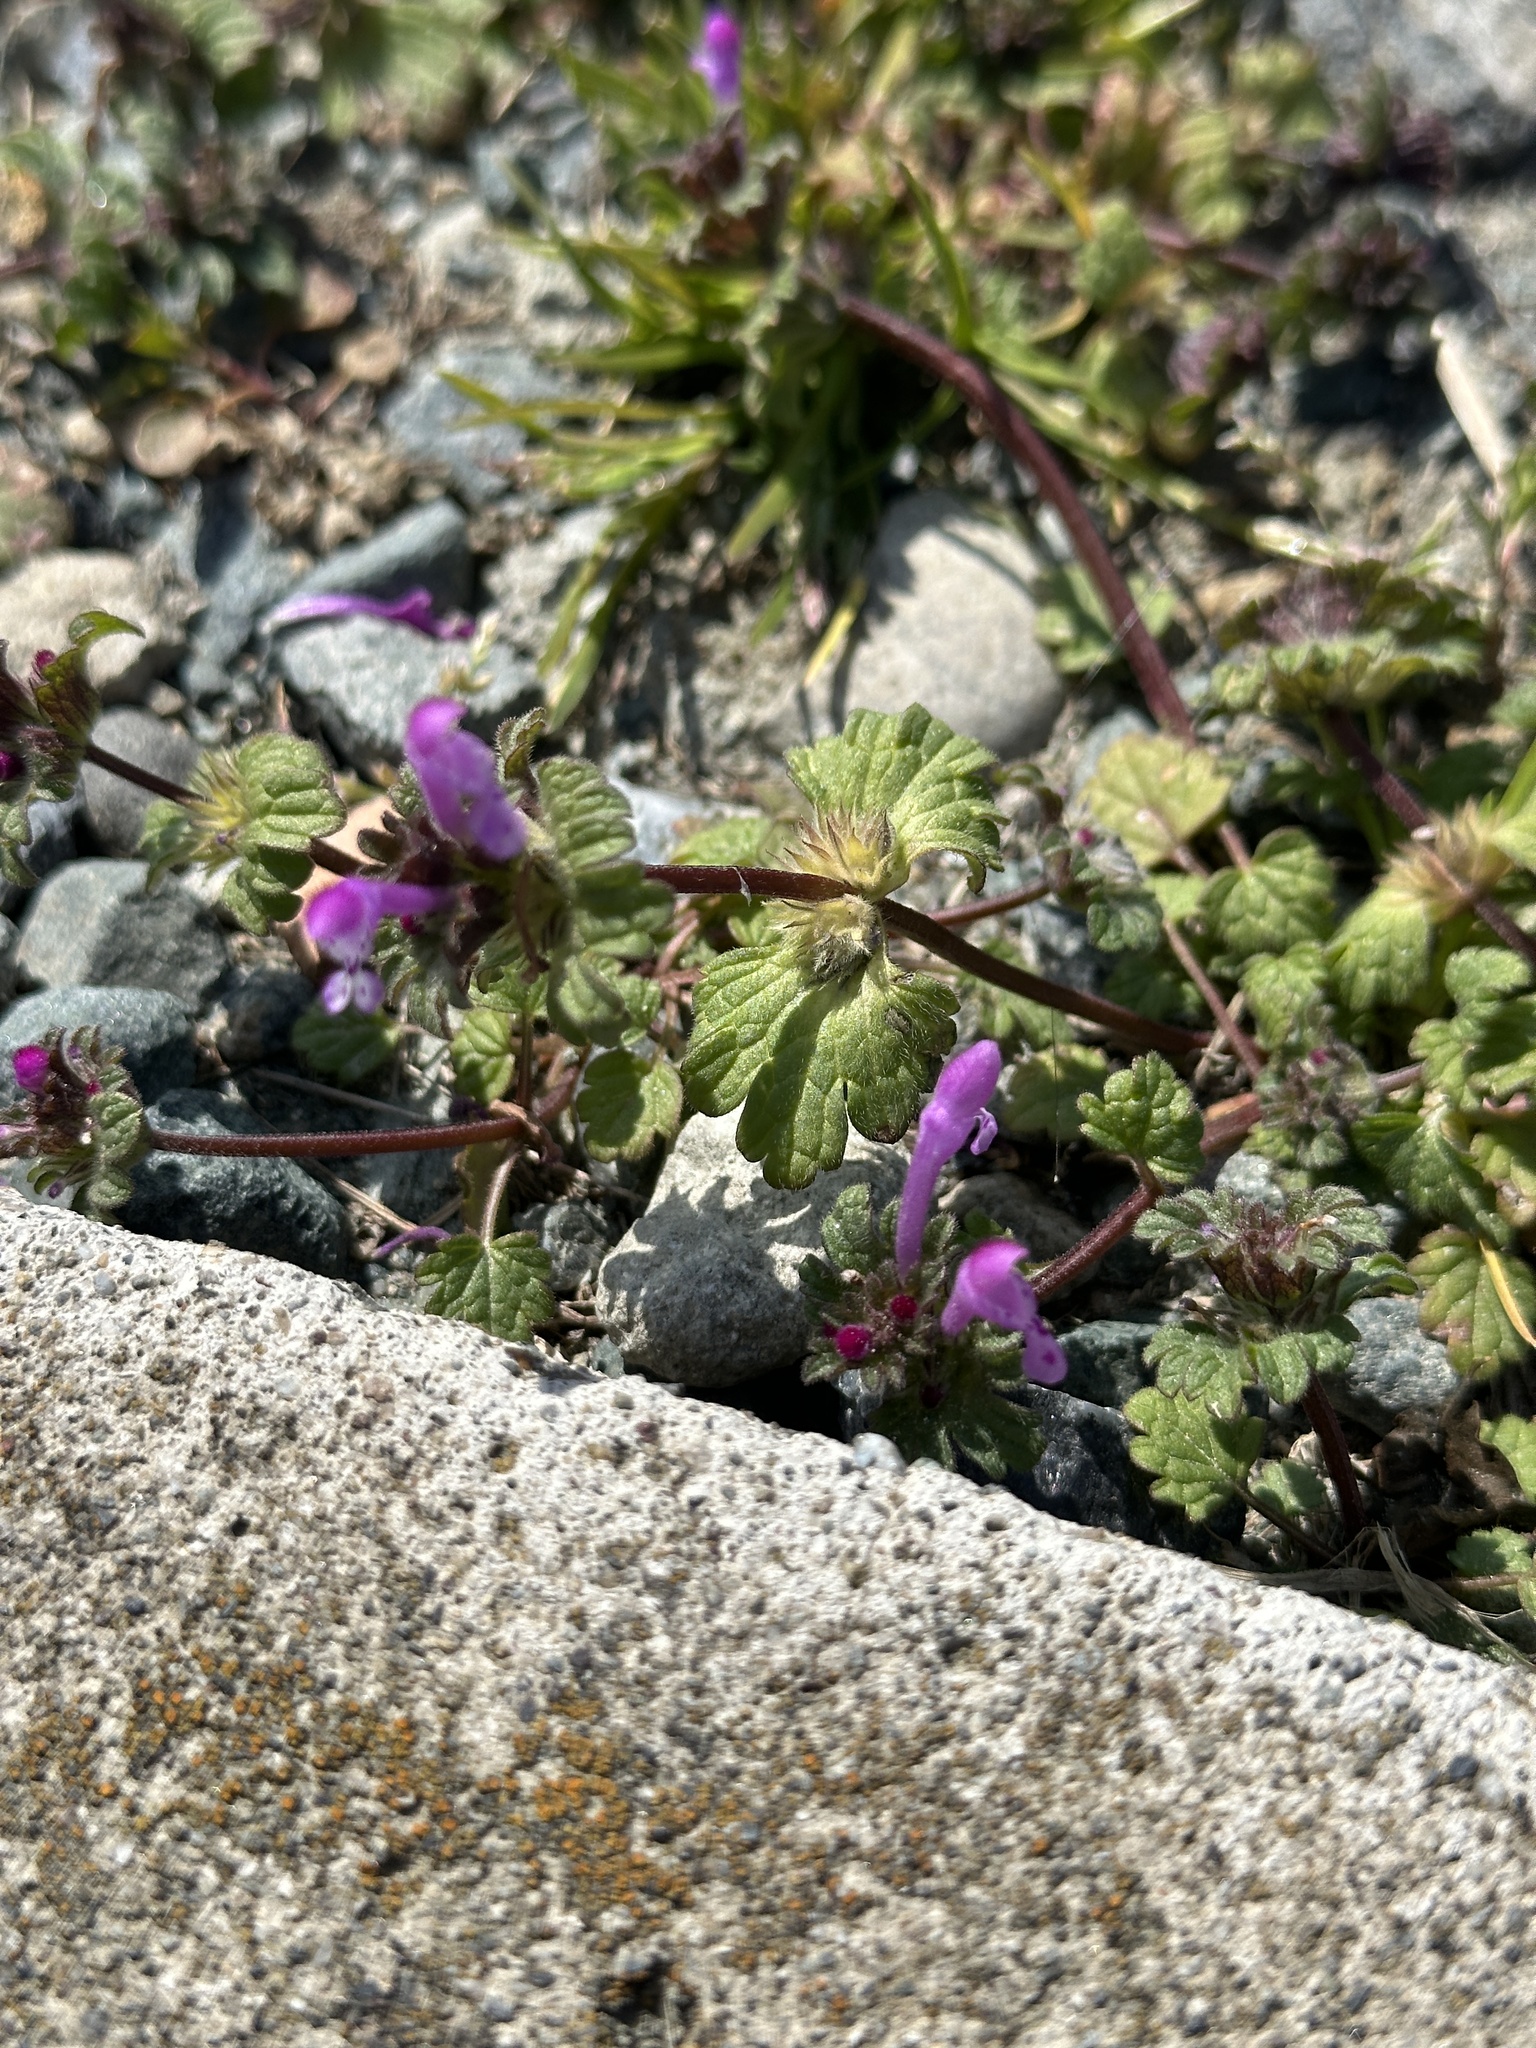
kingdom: Plantae
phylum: Tracheophyta
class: Magnoliopsida
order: Lamiales
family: Lamiaceae
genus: Lamium
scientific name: Lamium amplexicaule
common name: Henbit dead-nettle
